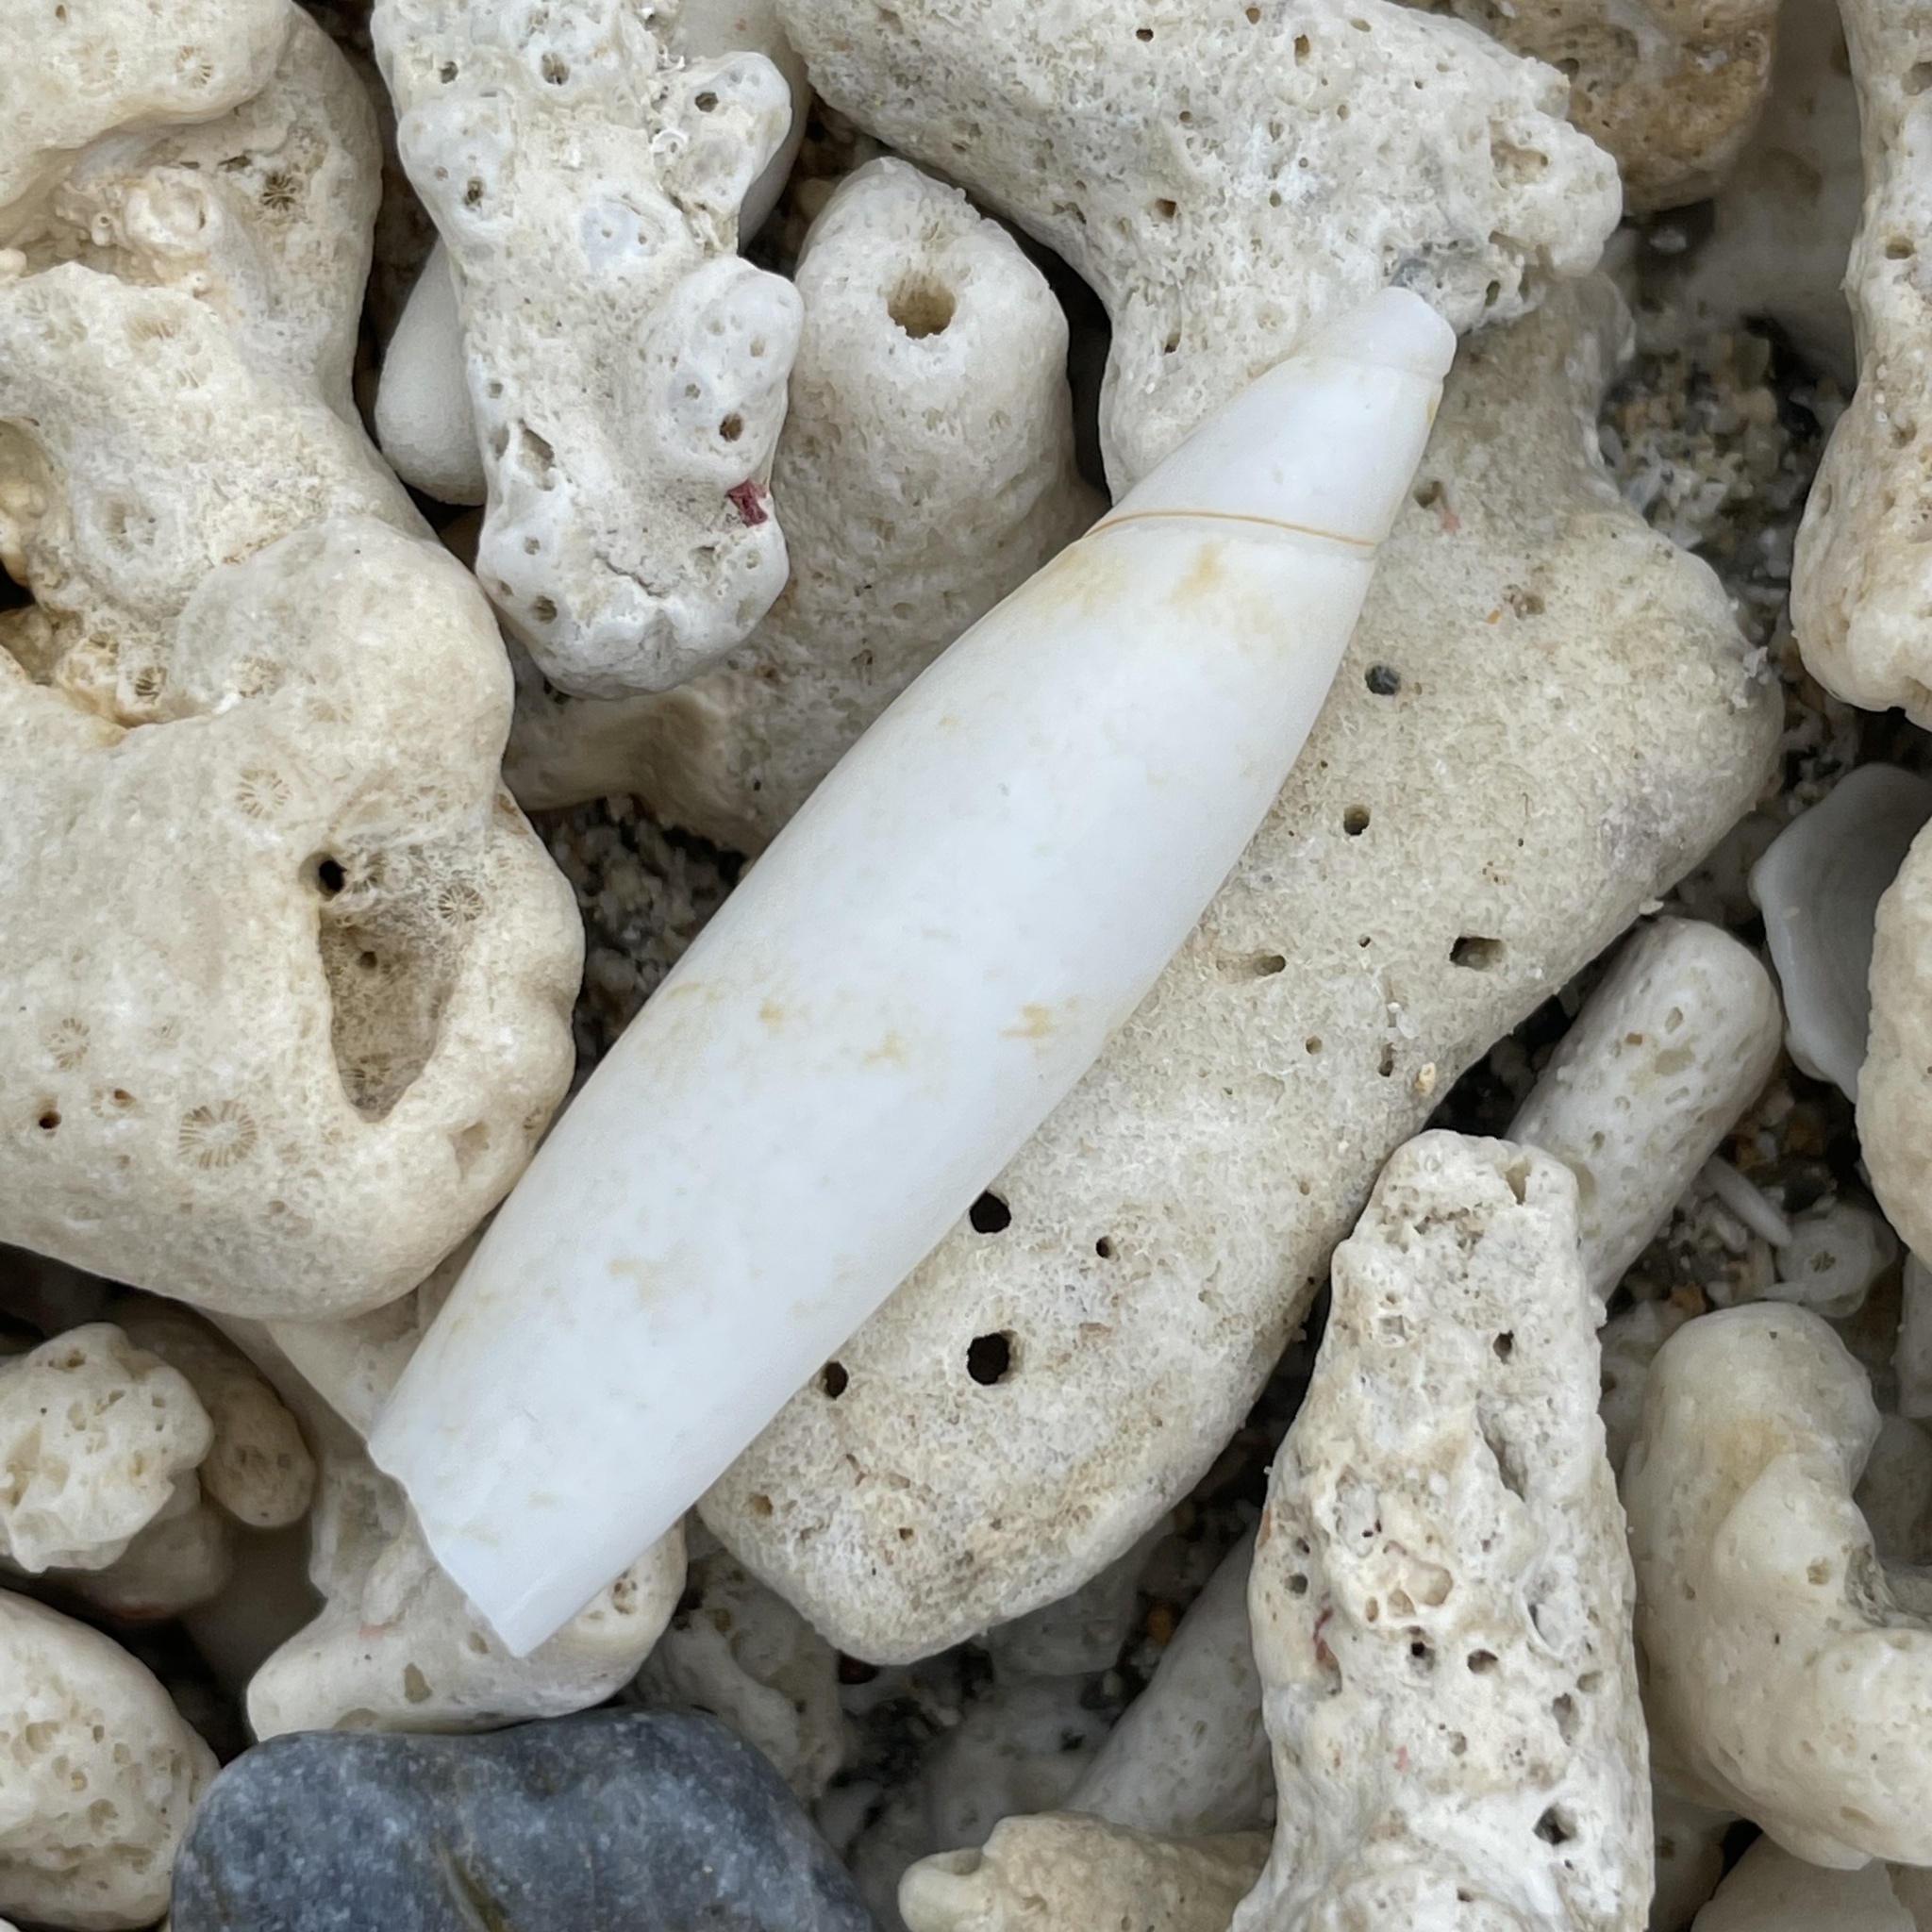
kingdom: Animalia
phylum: Mollusca
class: Gastropoda
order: Littorinimorpha
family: Seraphsidae
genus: Terebellum
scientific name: Terebellum terebellum
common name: Little auger
